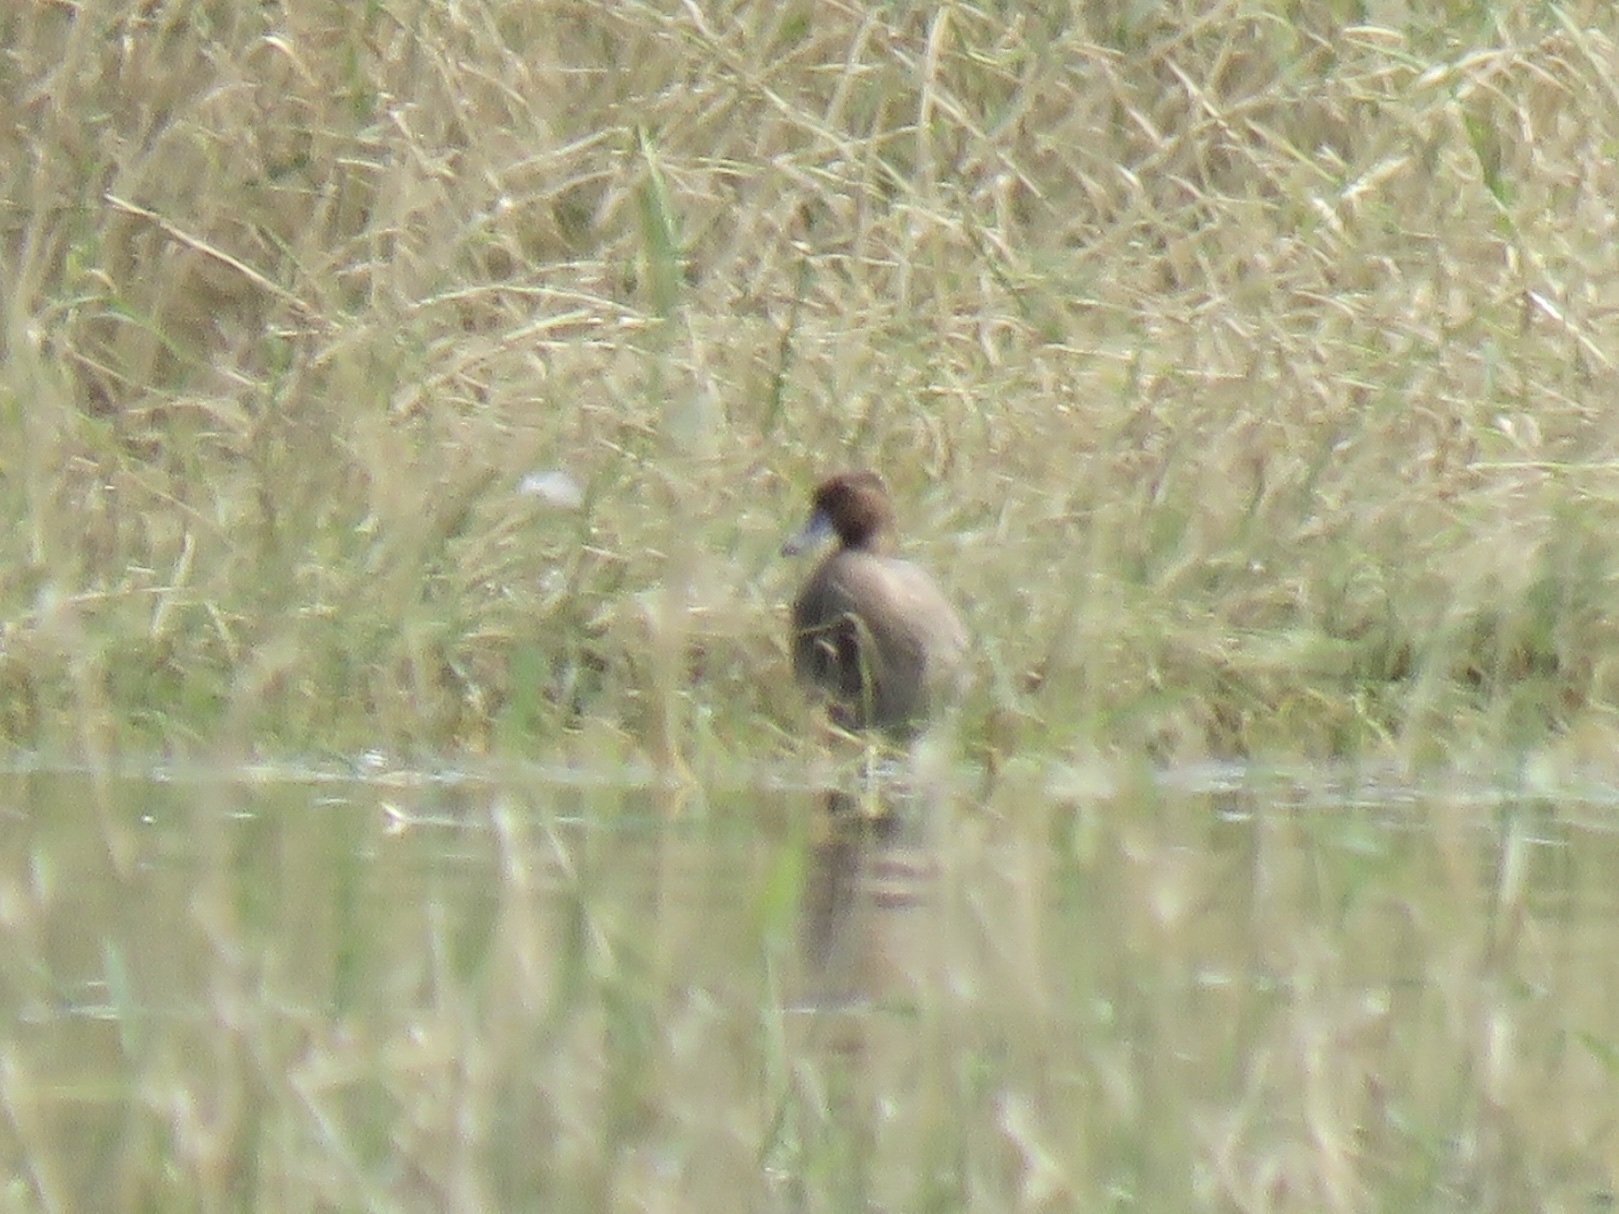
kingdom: Animalia
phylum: Chordata
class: Aves
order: Anseriformes
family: Anatidae
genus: Anas
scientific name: Anas crecca
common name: Eurasian teal
